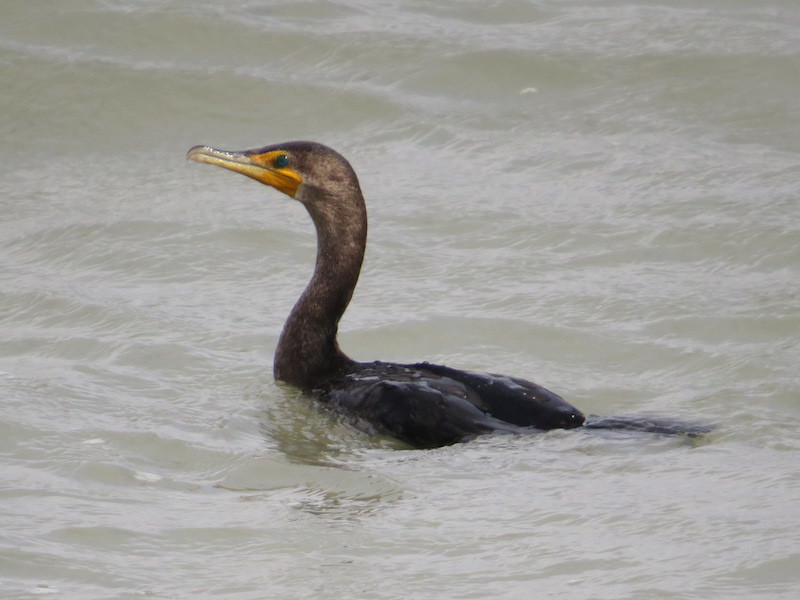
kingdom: Animalia
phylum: Chordata
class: Aves
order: Suliformes
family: Phalacrocoracidae
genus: Phalacrocorax
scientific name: Phalacrocorax auritus
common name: Double-crested cormorant
